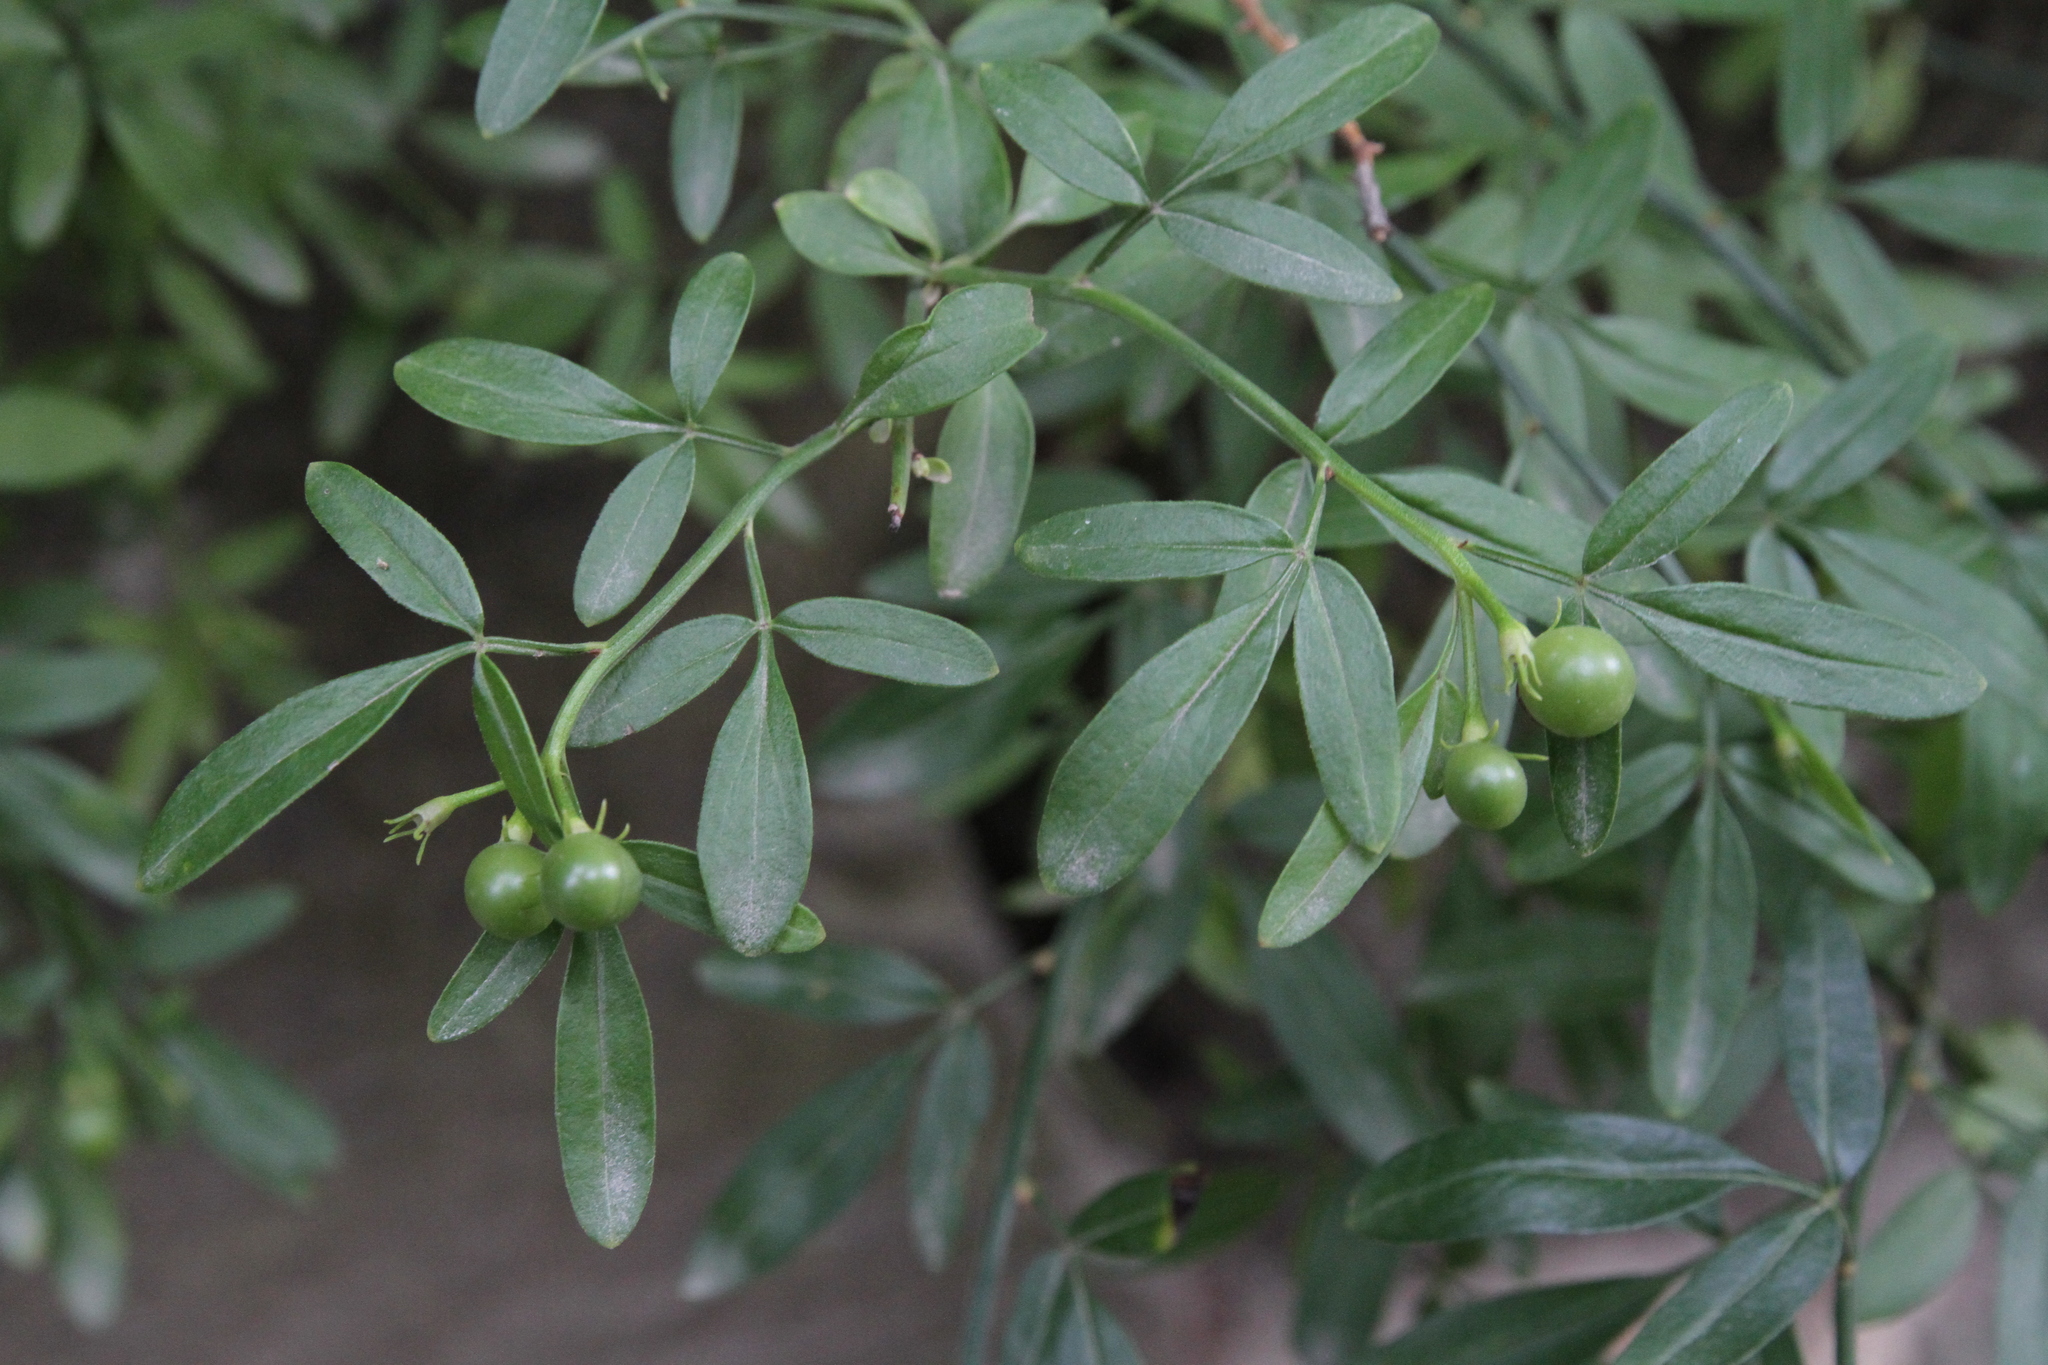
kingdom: Plantae
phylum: Tracheophyta
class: Magnoliopsida
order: Lamiales
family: Oleaceae
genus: Chrysojasminum
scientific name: Chrysojasminum fruticans
